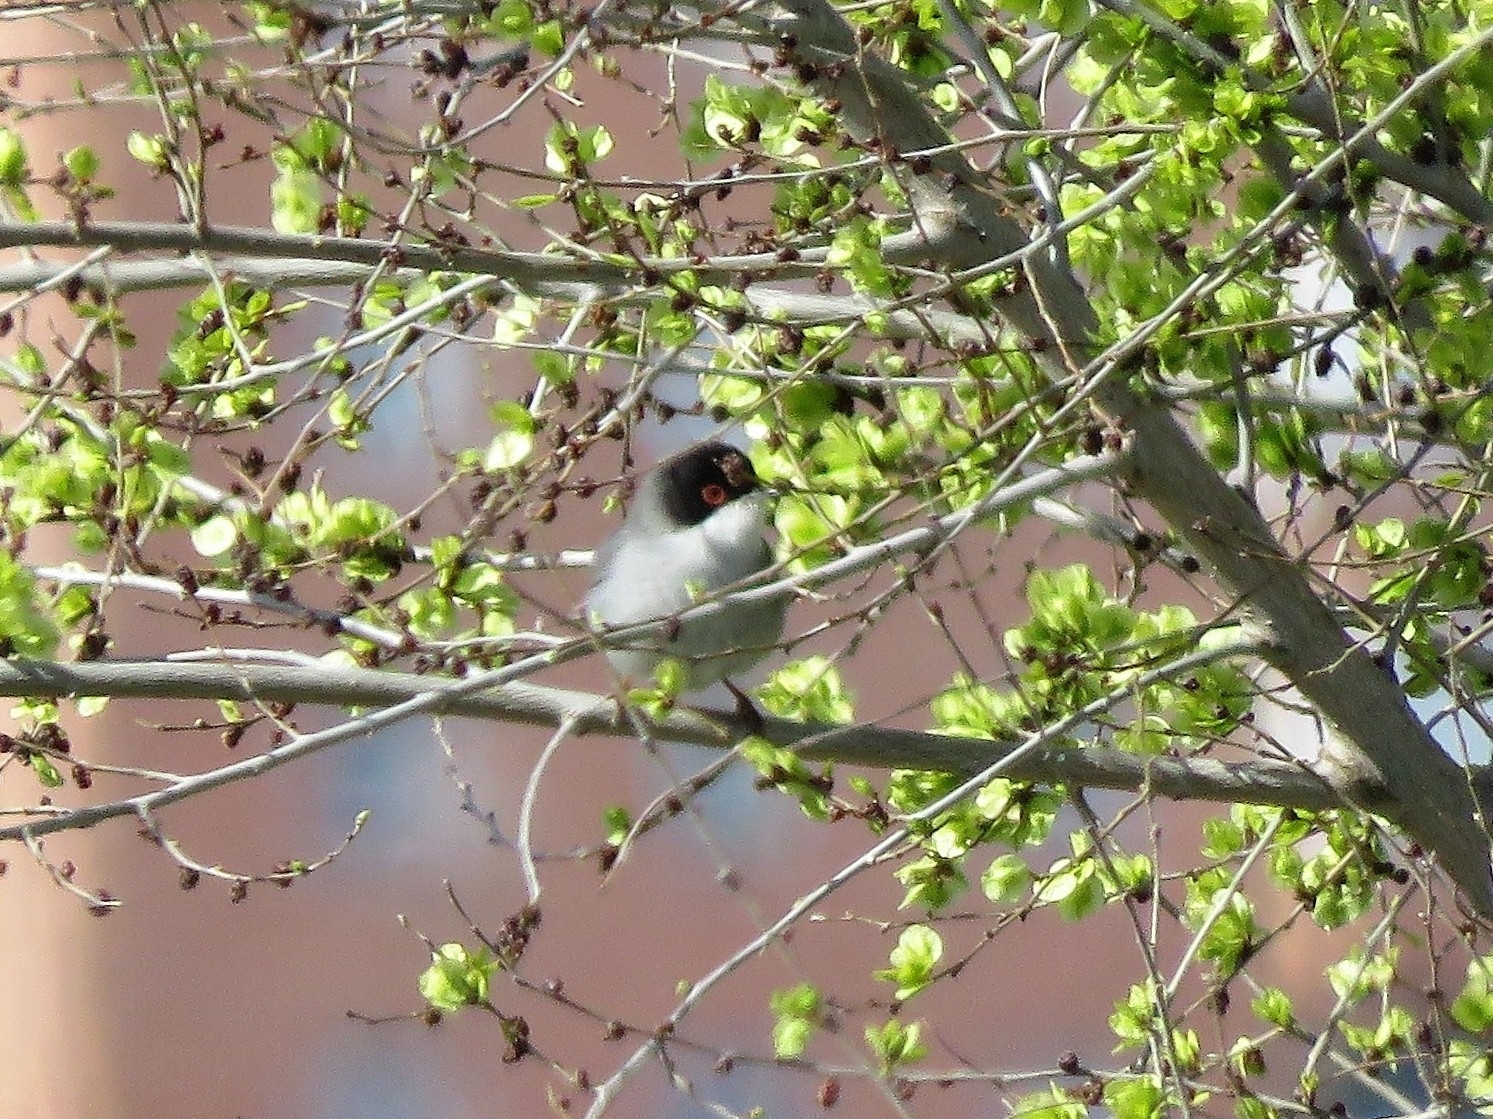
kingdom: Animalia
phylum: Chordata
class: Aves
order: Passeriformes
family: Sylviidae
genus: Curruca
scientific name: Curruca melanocephala
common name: Sardinian warbler
